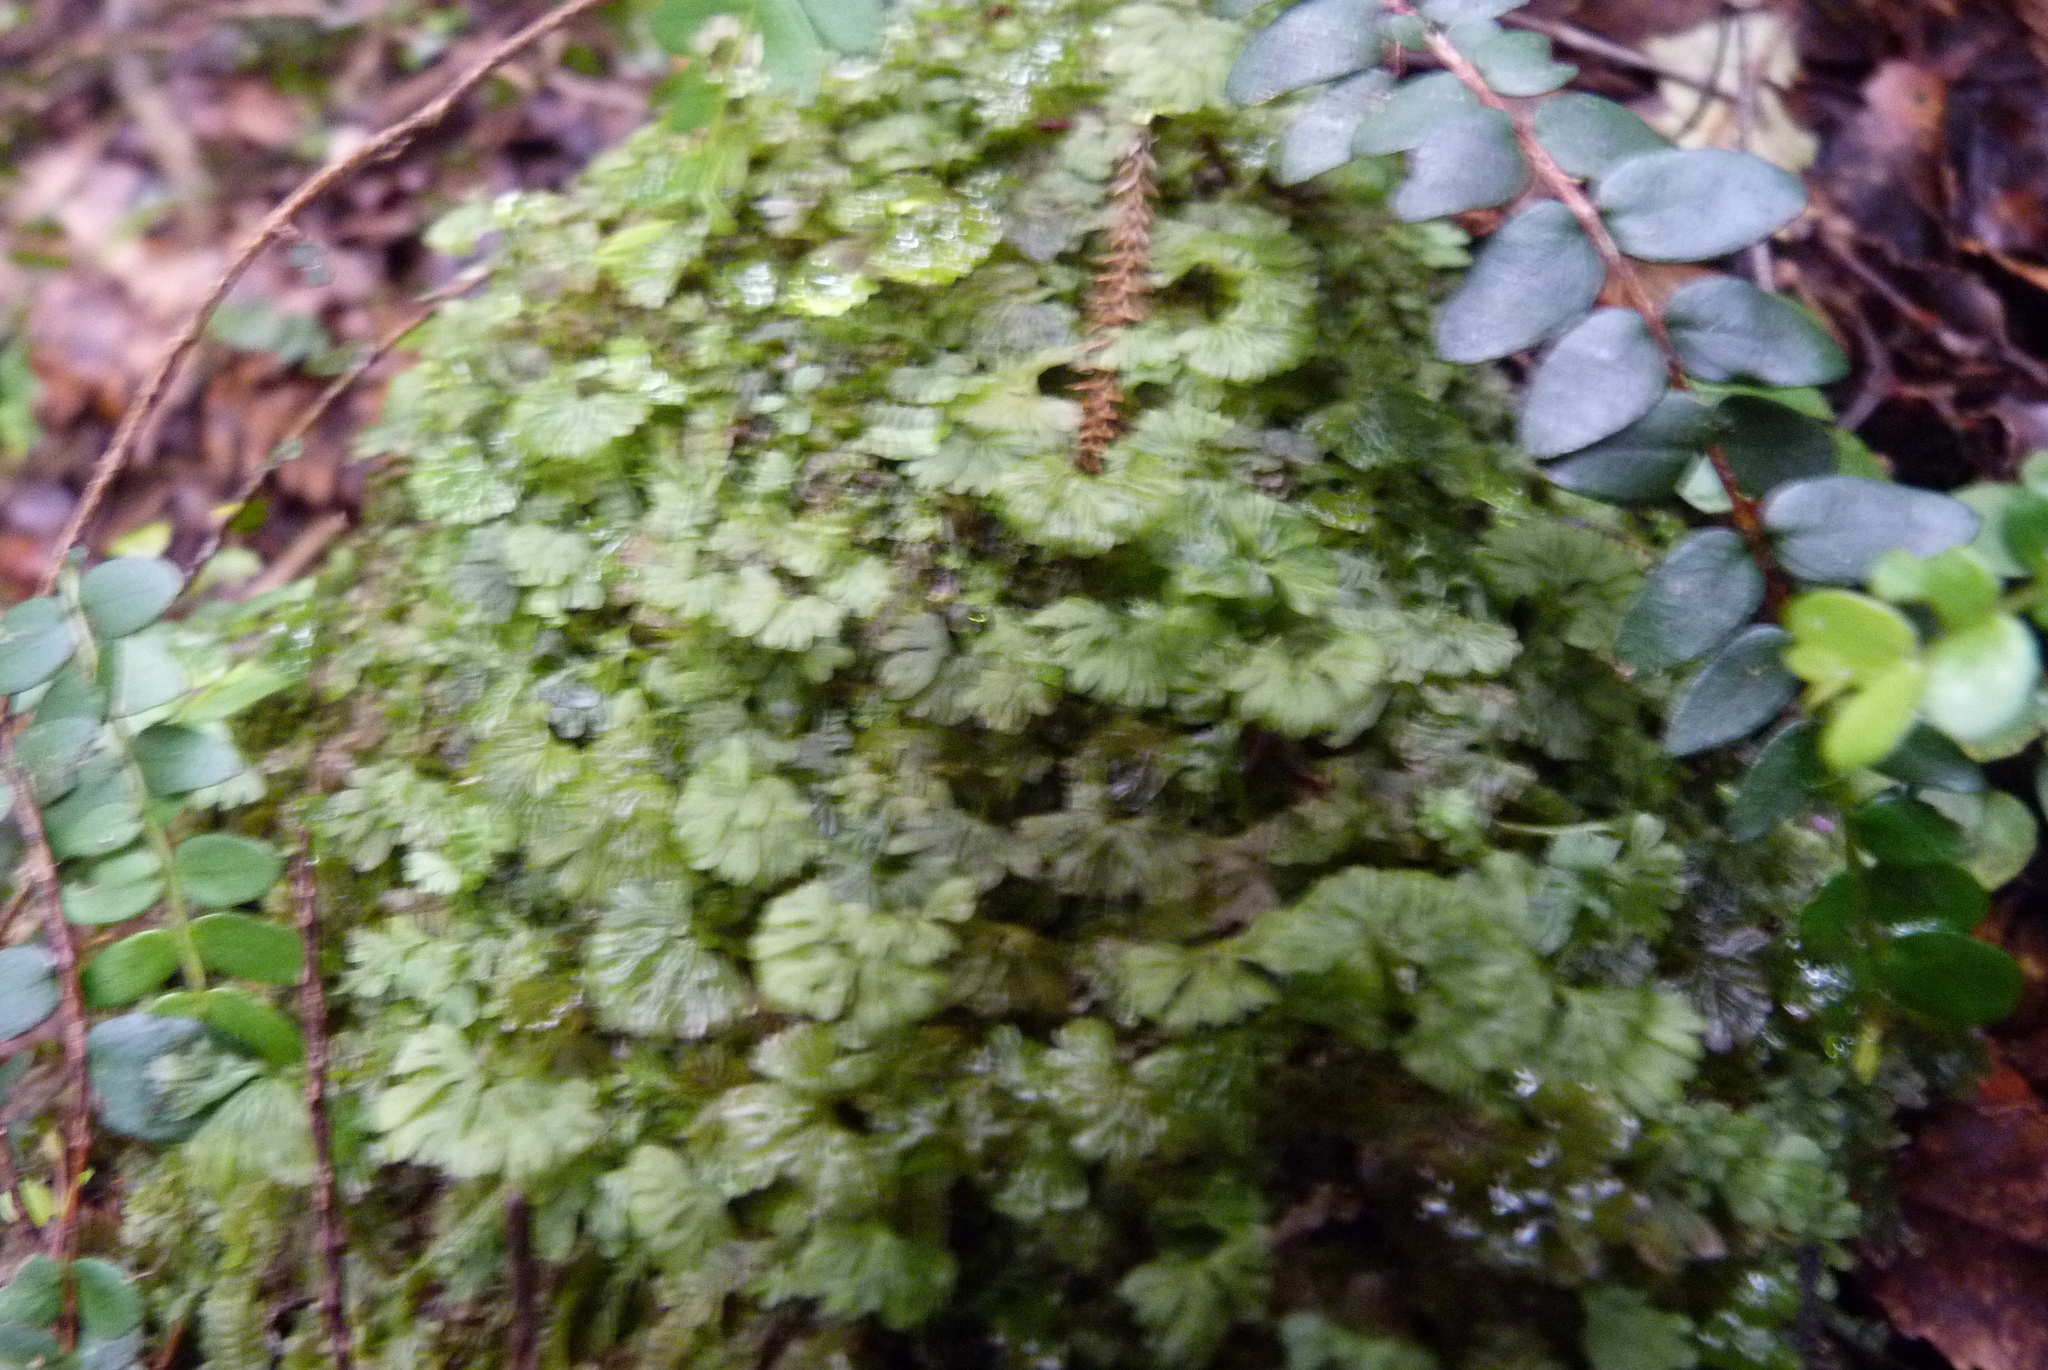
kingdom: Plantae
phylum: Marchantiophyta
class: Jungermanniopsida
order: Pallaviciniales
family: Hymenophytaceae
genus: Hymenophyton
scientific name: Hymenophyton flabellatum
